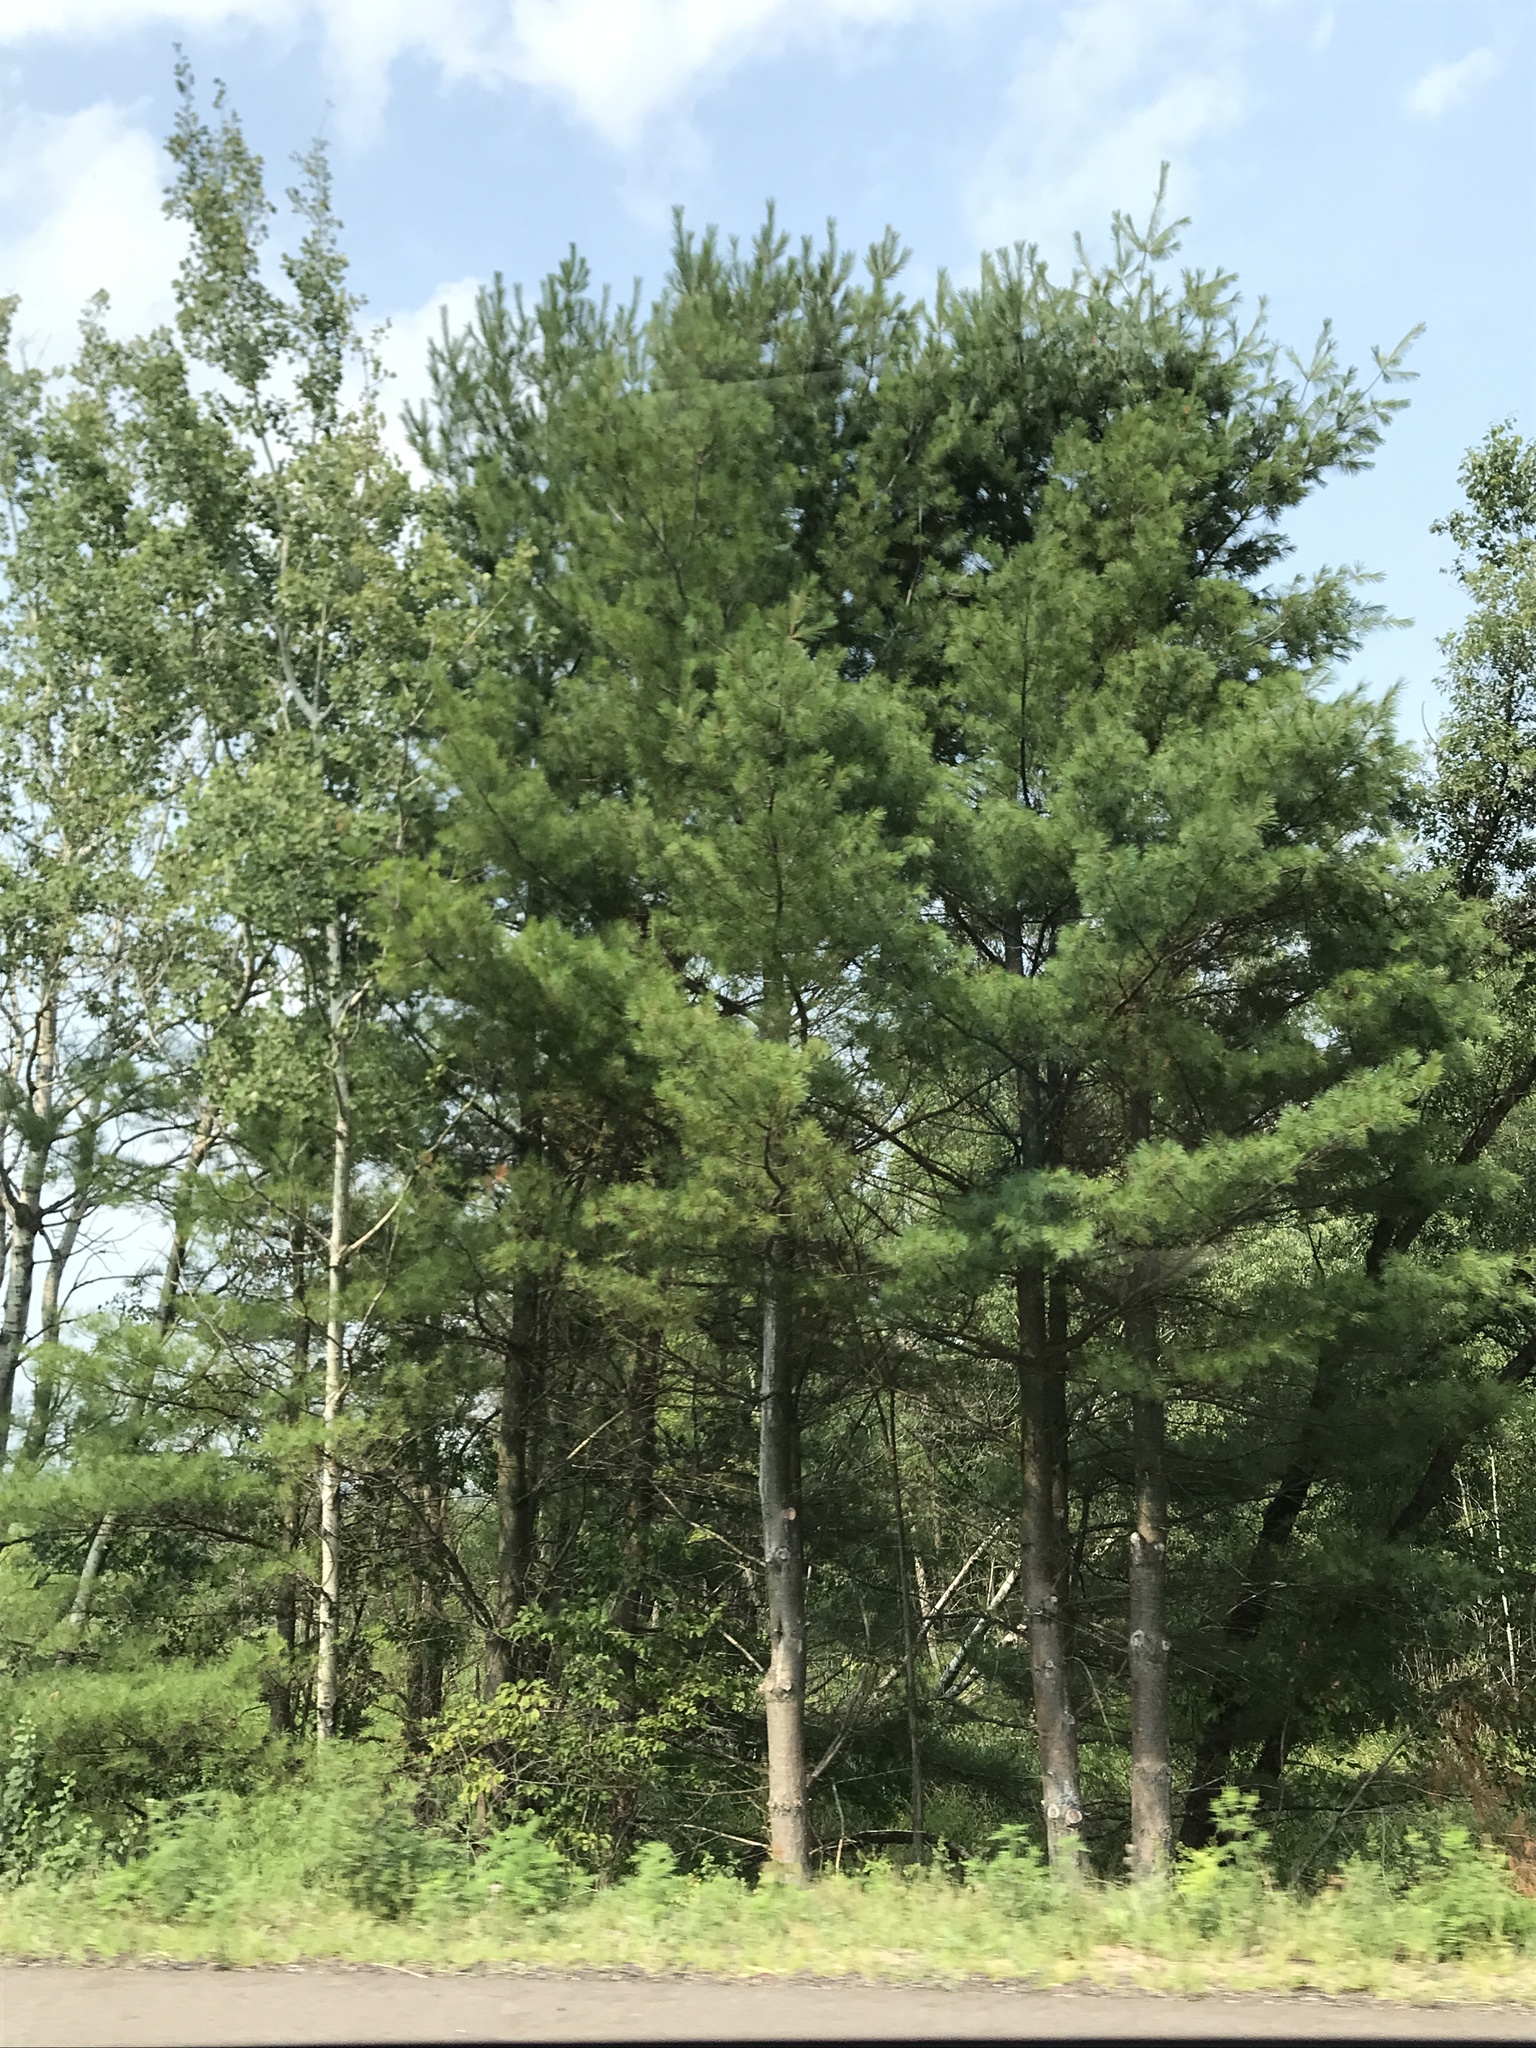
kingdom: Plantae
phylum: Tracheophyta
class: Pinopsida
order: Pinales
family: Pinaceae
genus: Pinus
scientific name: Pinus strobus
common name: Weymouth pine
